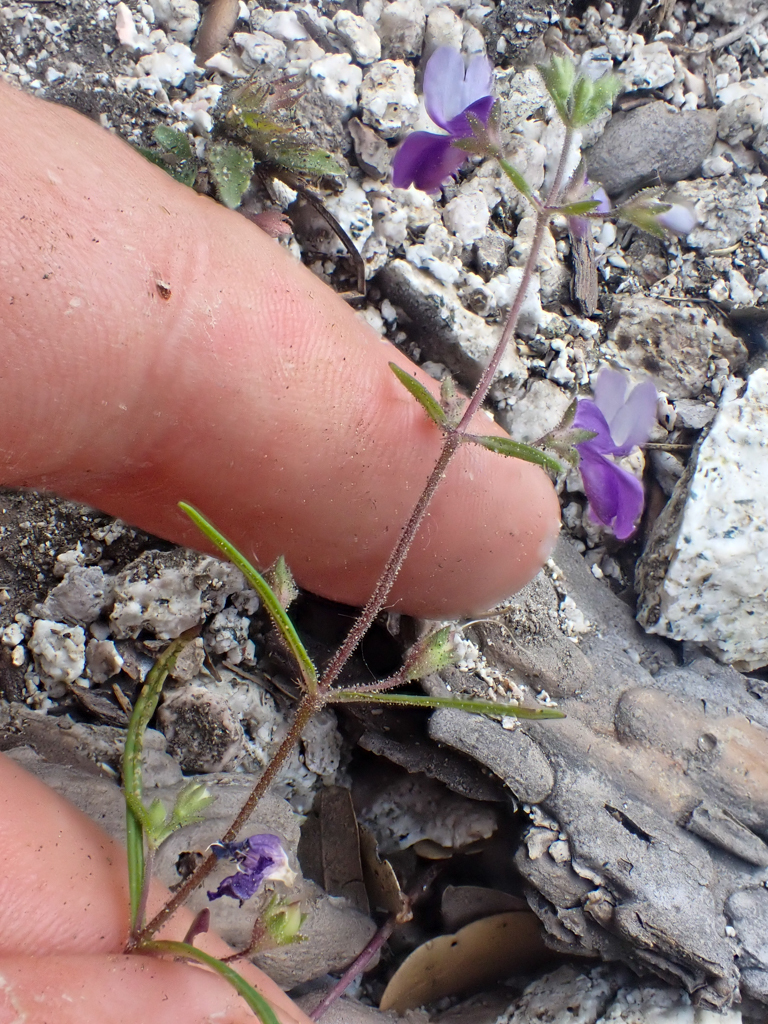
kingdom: Plantae
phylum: Tracheophyta
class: Magnoliopsida
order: Lamiales
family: Plantaginaceae
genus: Collinsia
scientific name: Collinsia linearis
